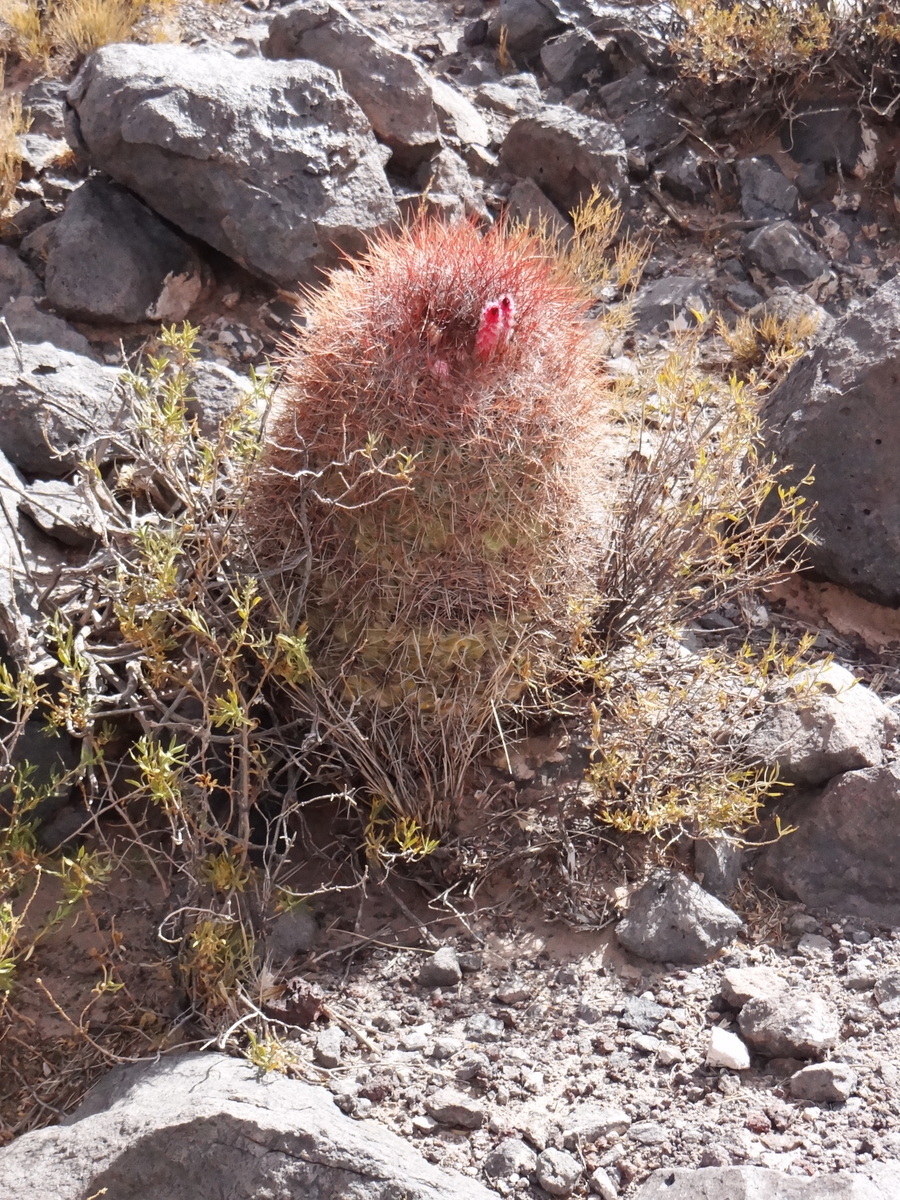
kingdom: Plantae
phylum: Tracheophyta
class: Magnoliopsida
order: Caryophyllales
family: Cactaceae
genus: Denmoza
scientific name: Denmoza rhodacantha
